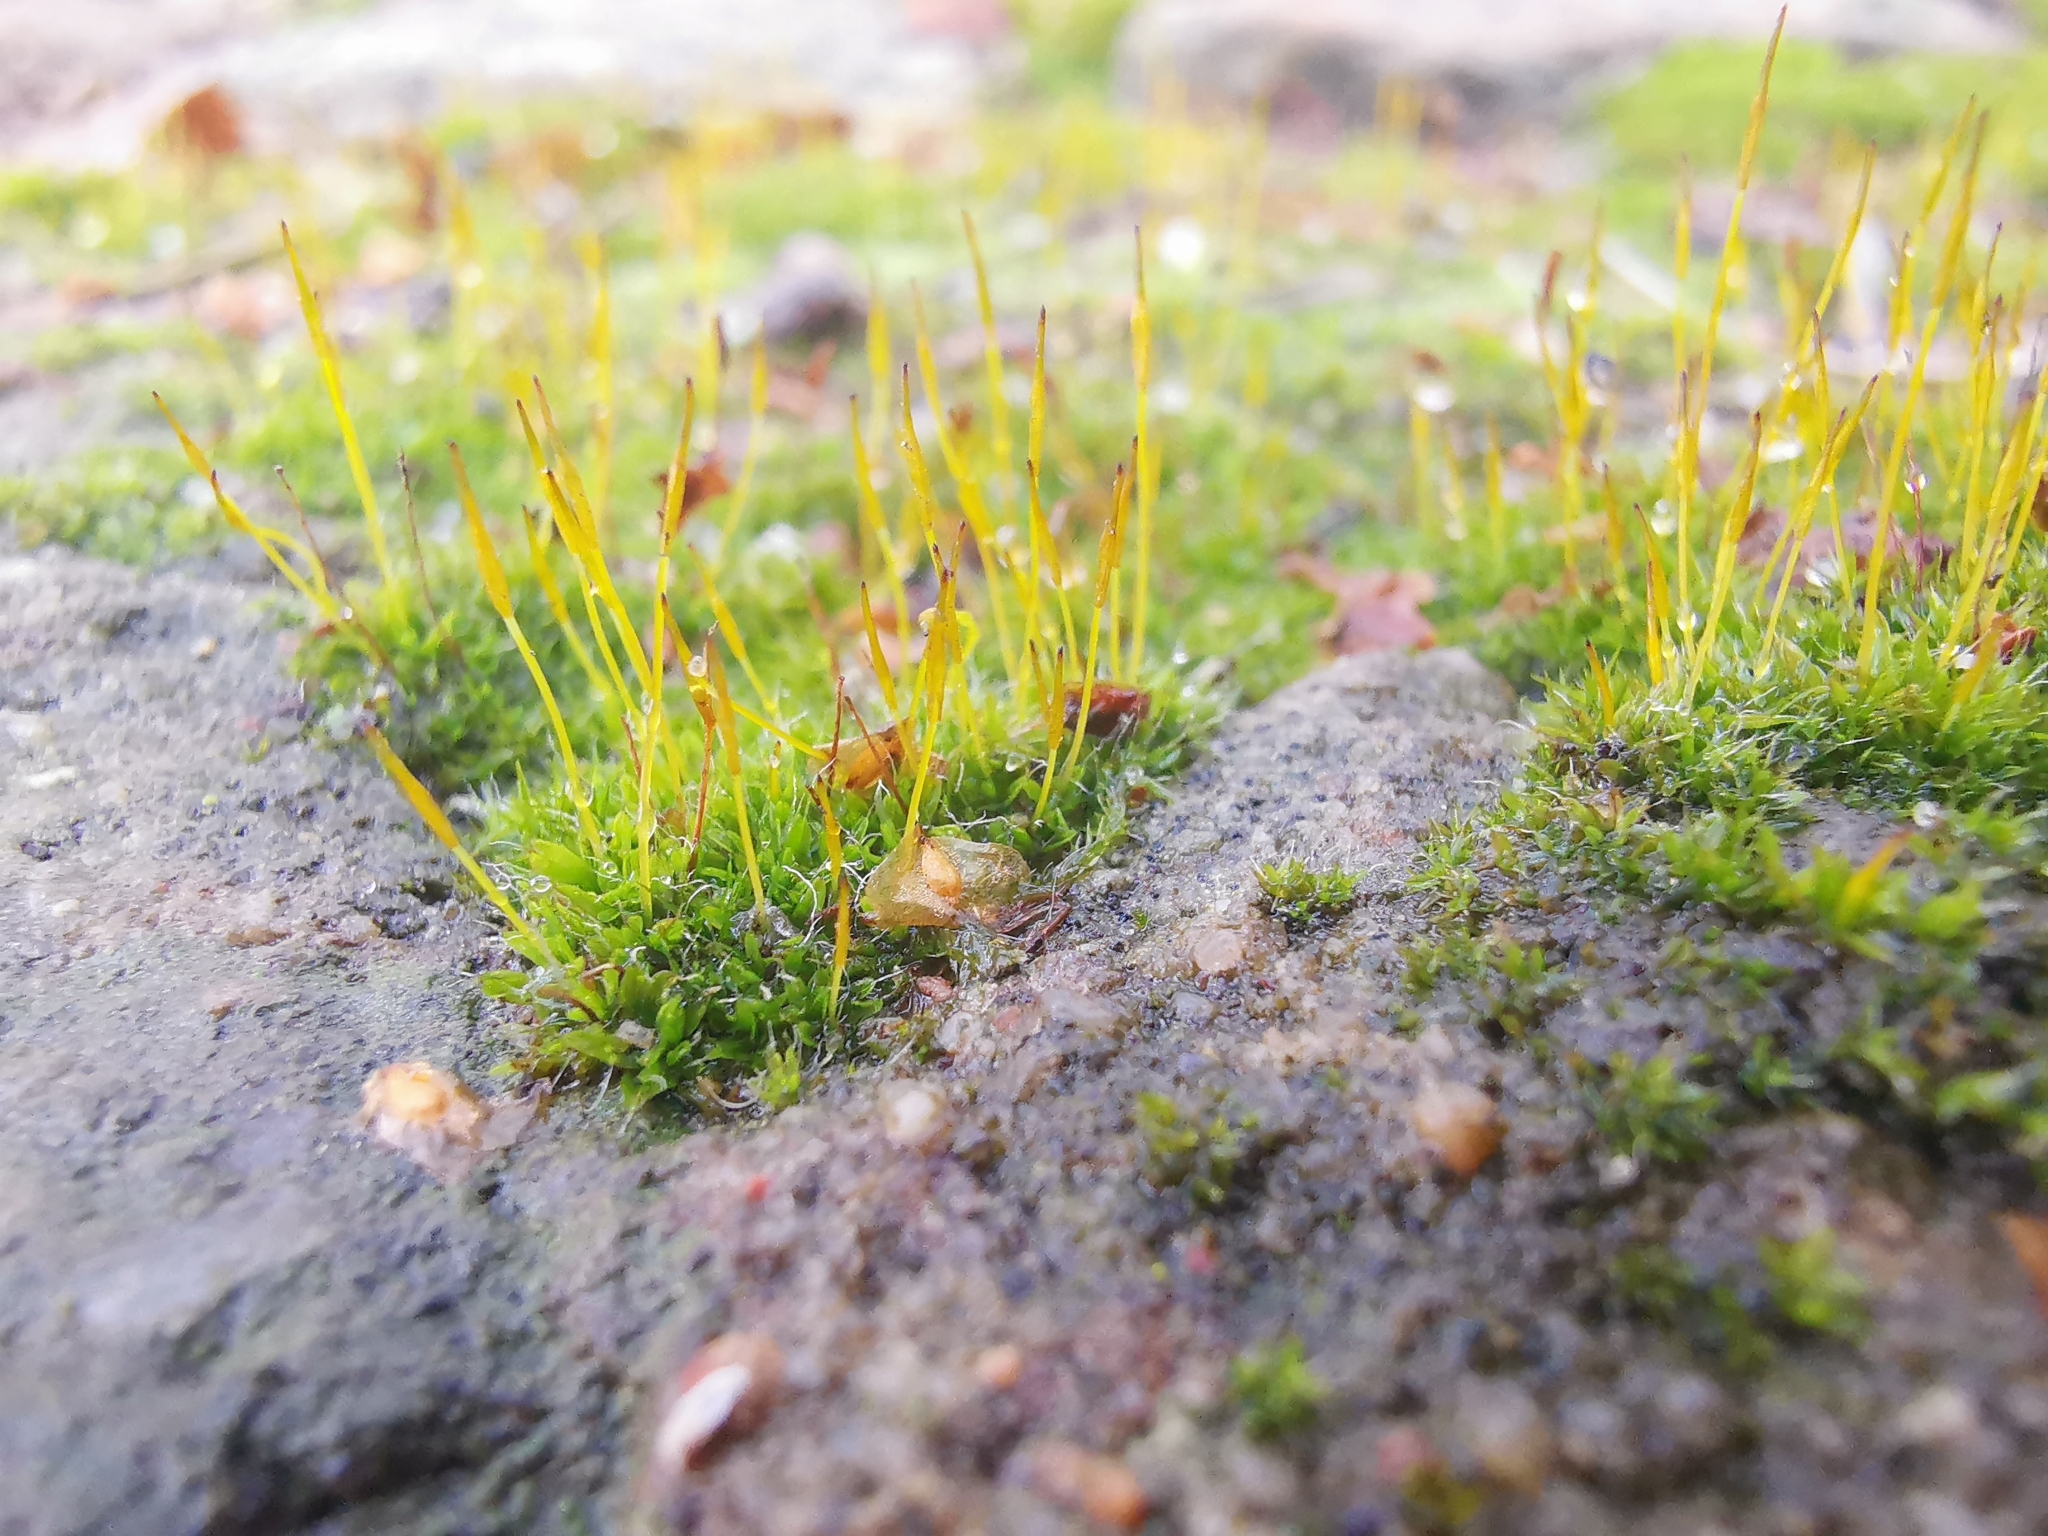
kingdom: Plantae
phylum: Bryophyta
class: Bryopsida
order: Pottiales
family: Pottiaceae
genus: Tortula
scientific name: Tortula muralis
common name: Wall screw-moss
